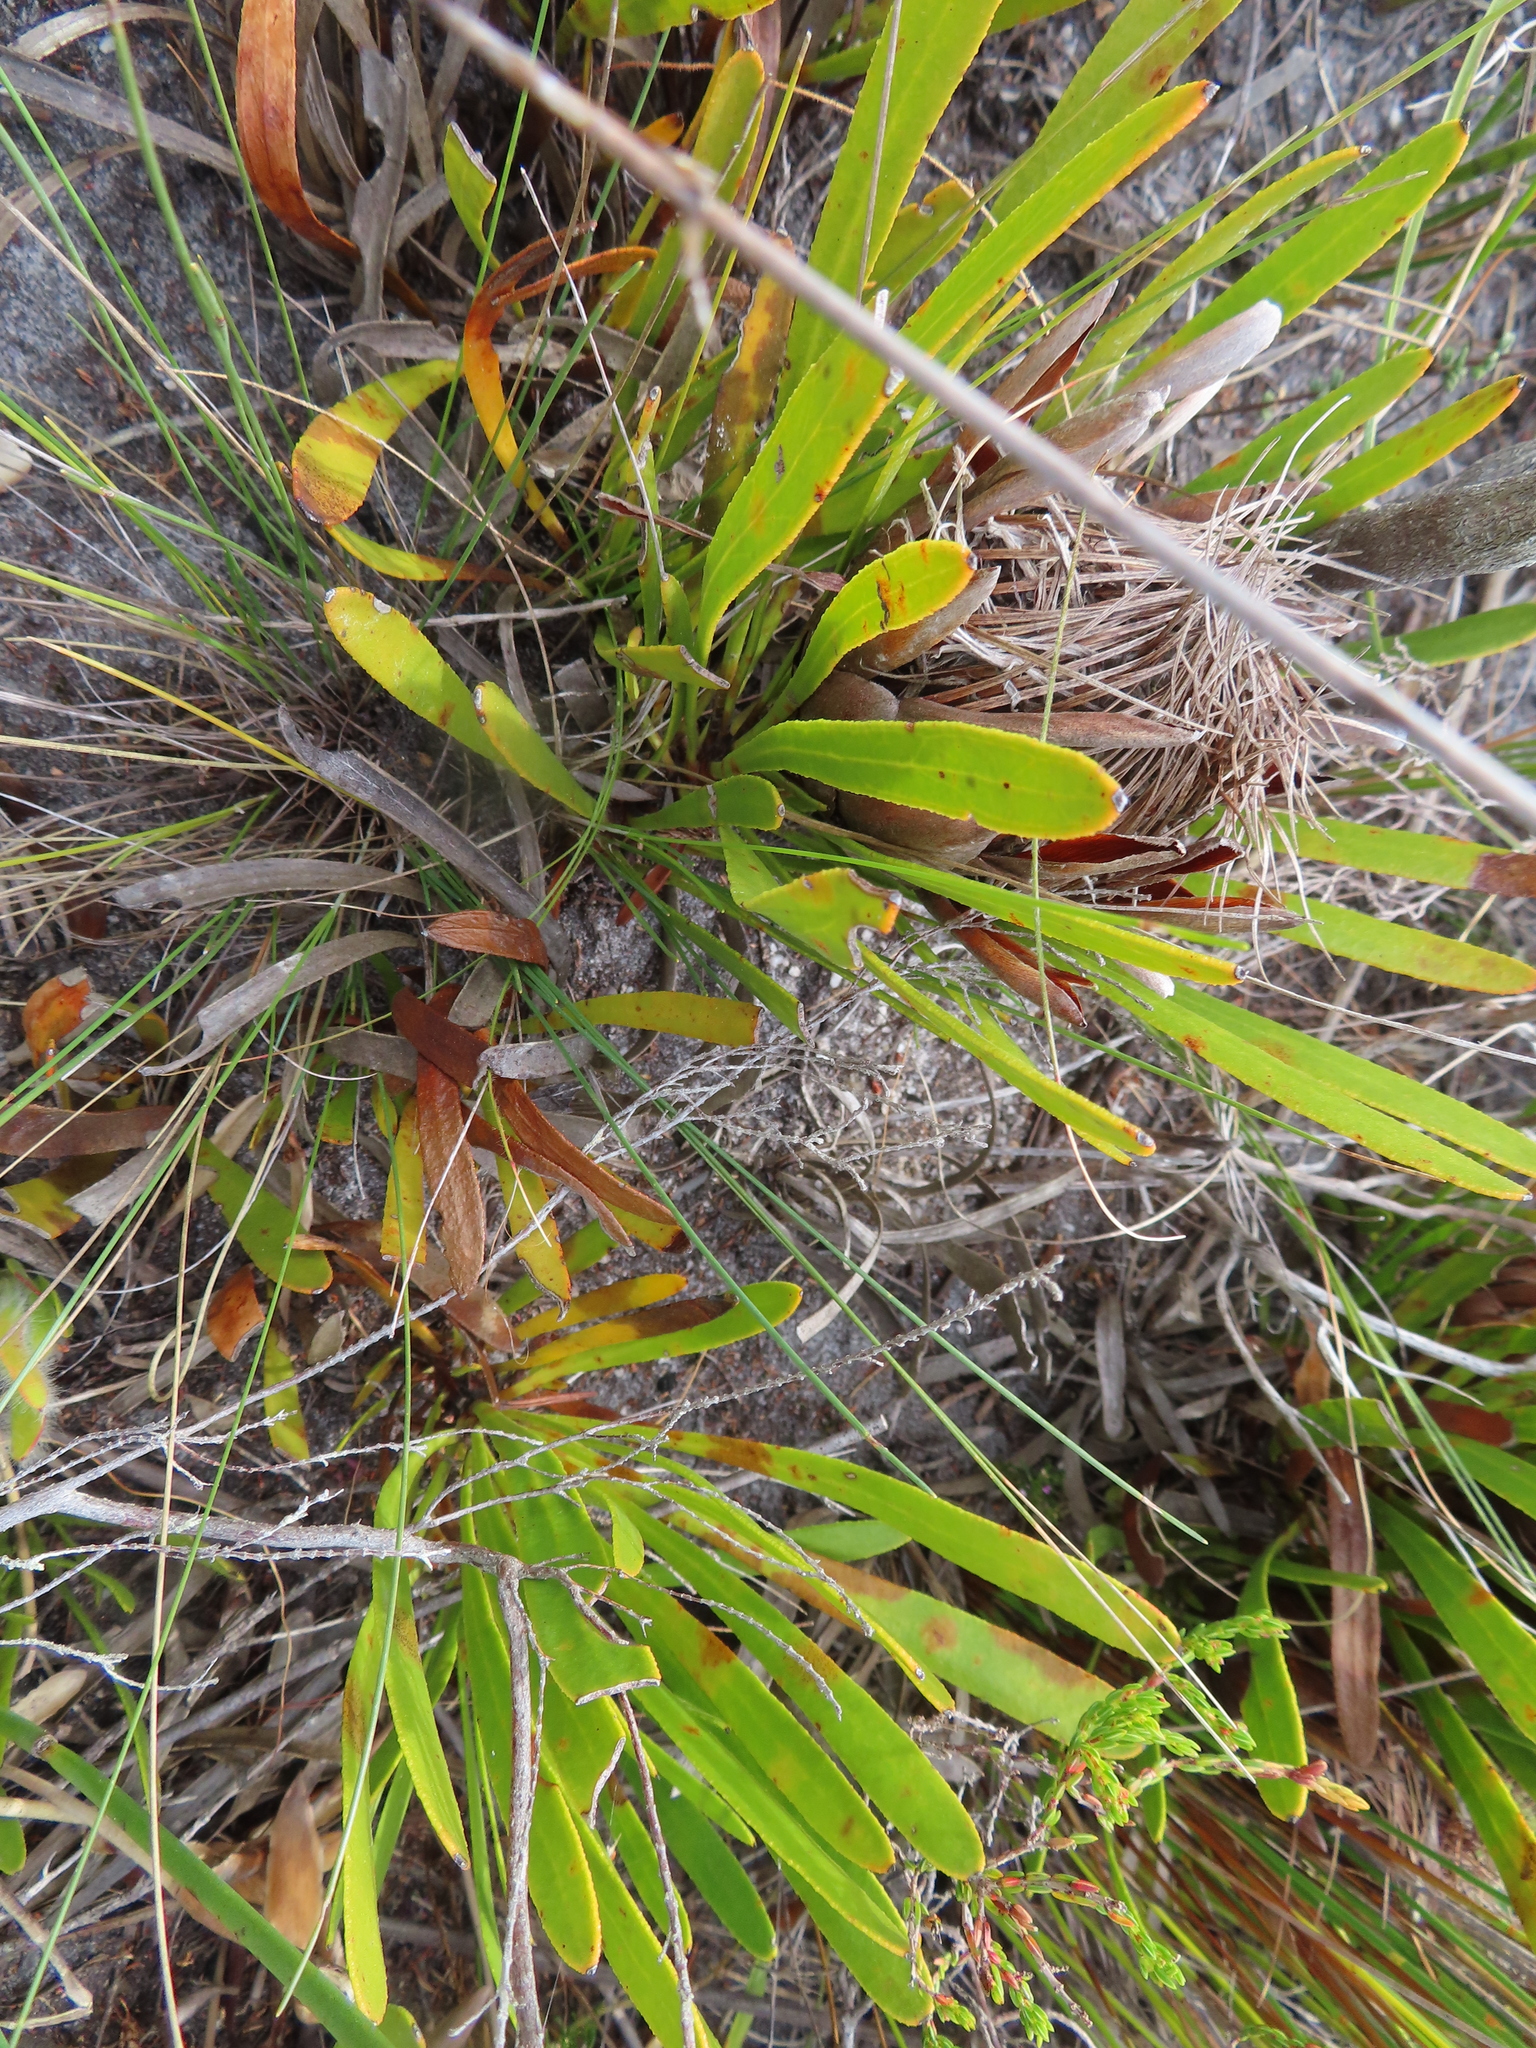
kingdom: Plantae
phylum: Tracheophyta
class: Magnoliopsida
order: Proteales
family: Proteaceae
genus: Protea
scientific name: Protea aspera
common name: Rough-leaf sugarbush
